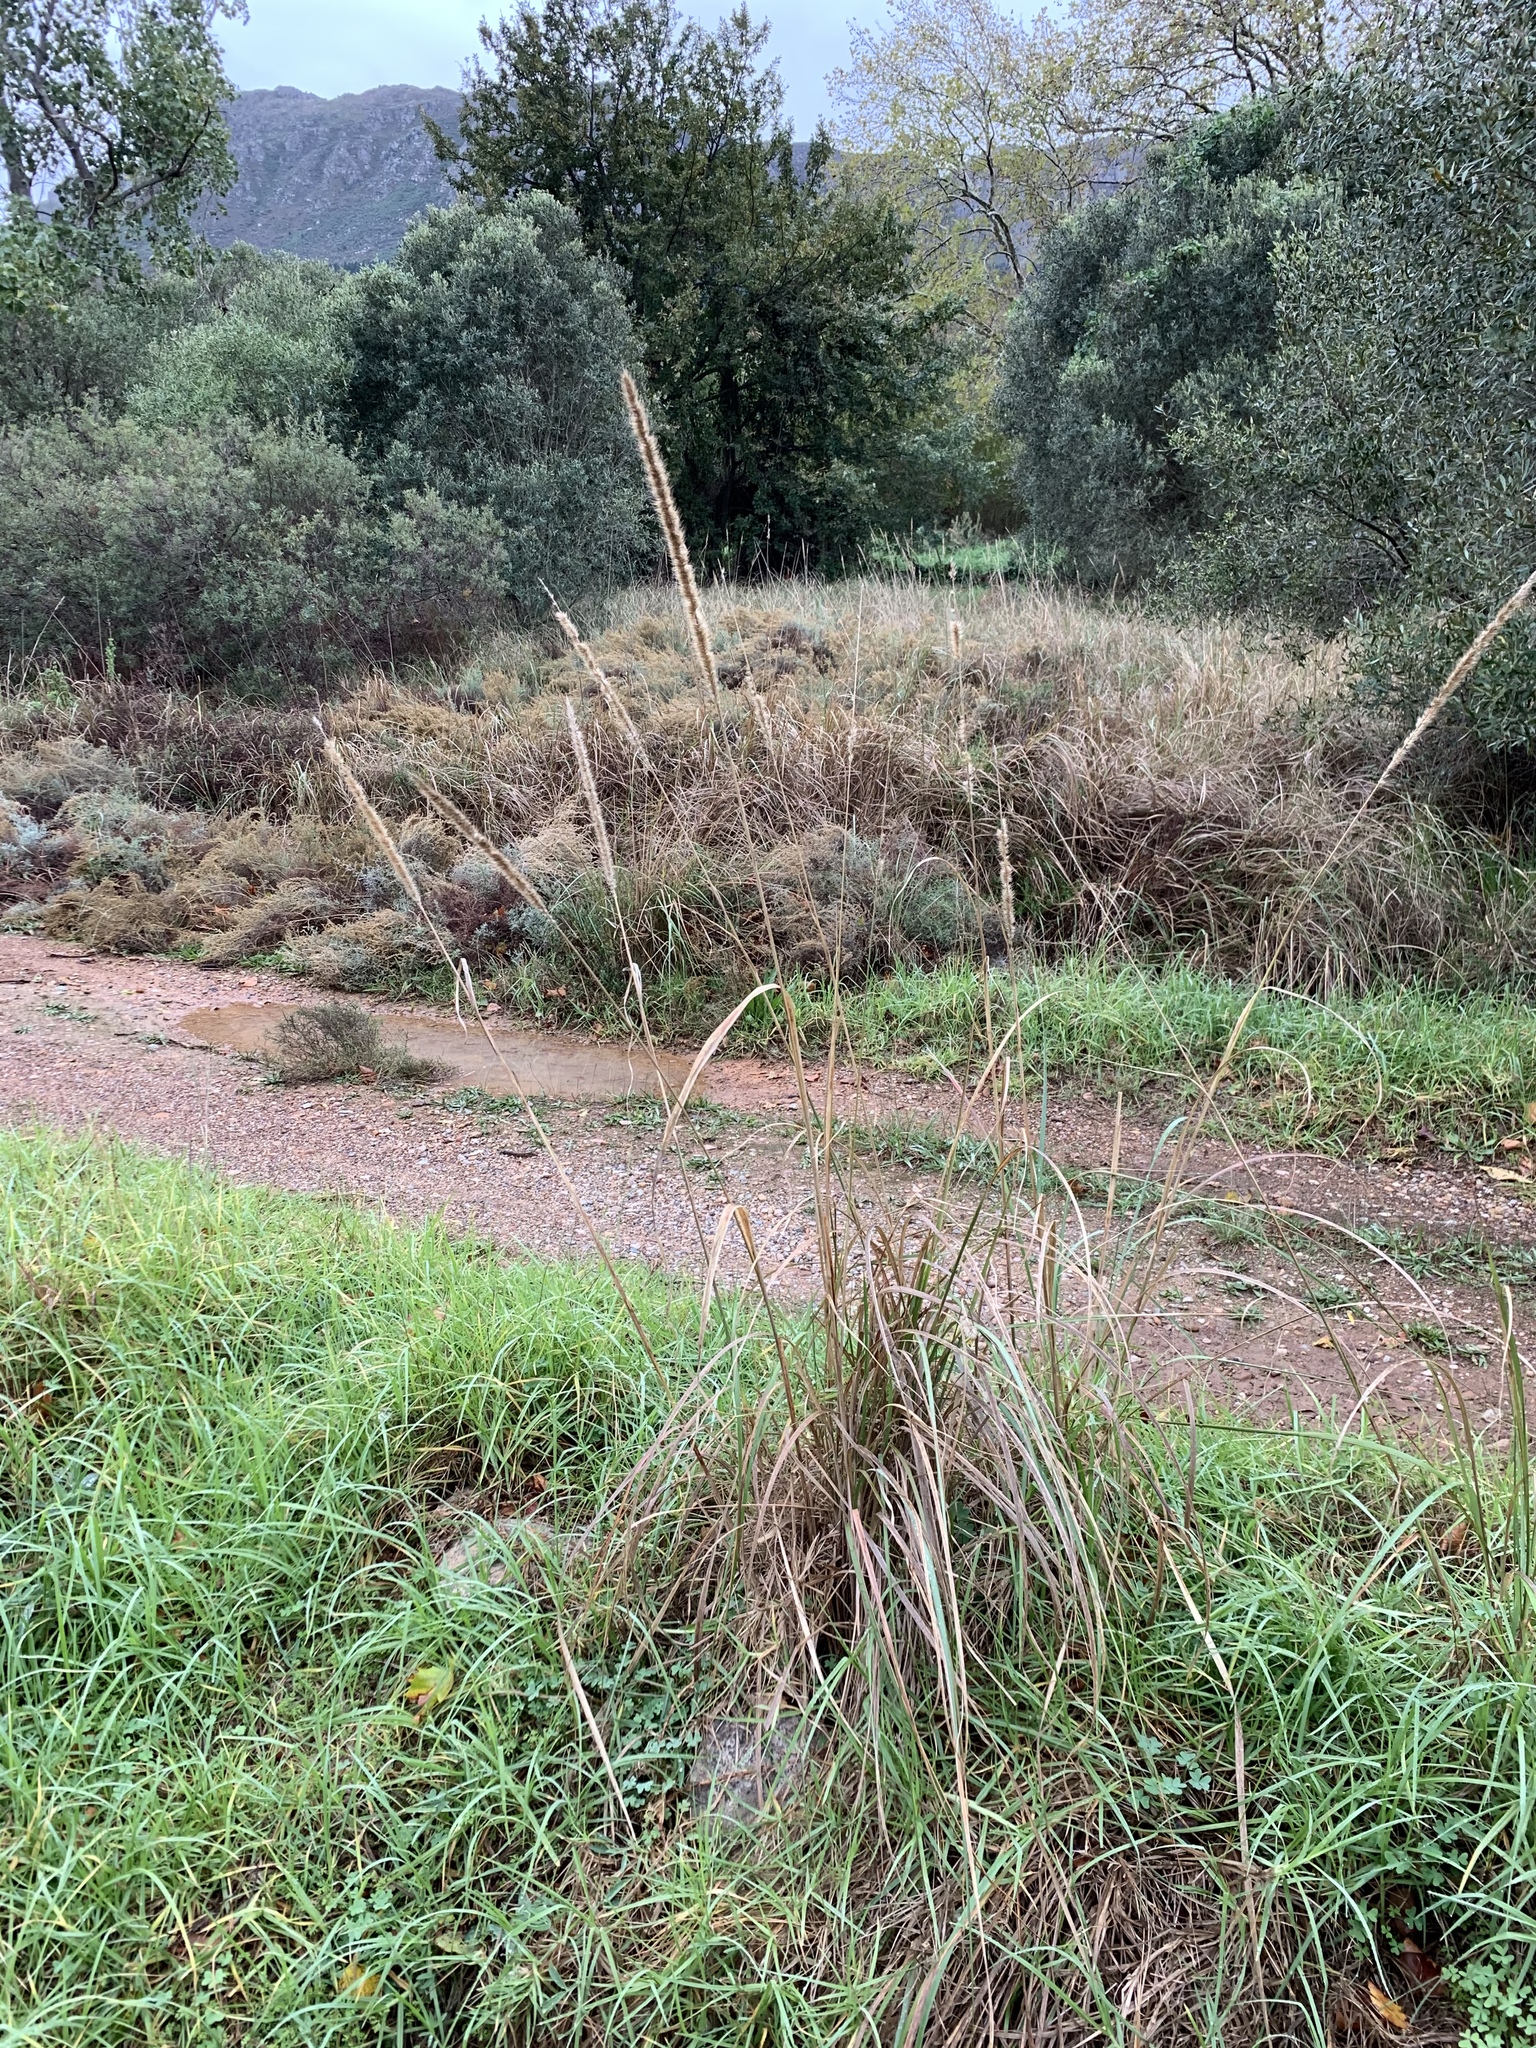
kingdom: Plantae
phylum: Tracheophyta
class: Liliopsida
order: Poales
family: Poaceae
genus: Cenchrus
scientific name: Cenchrus caudatus
